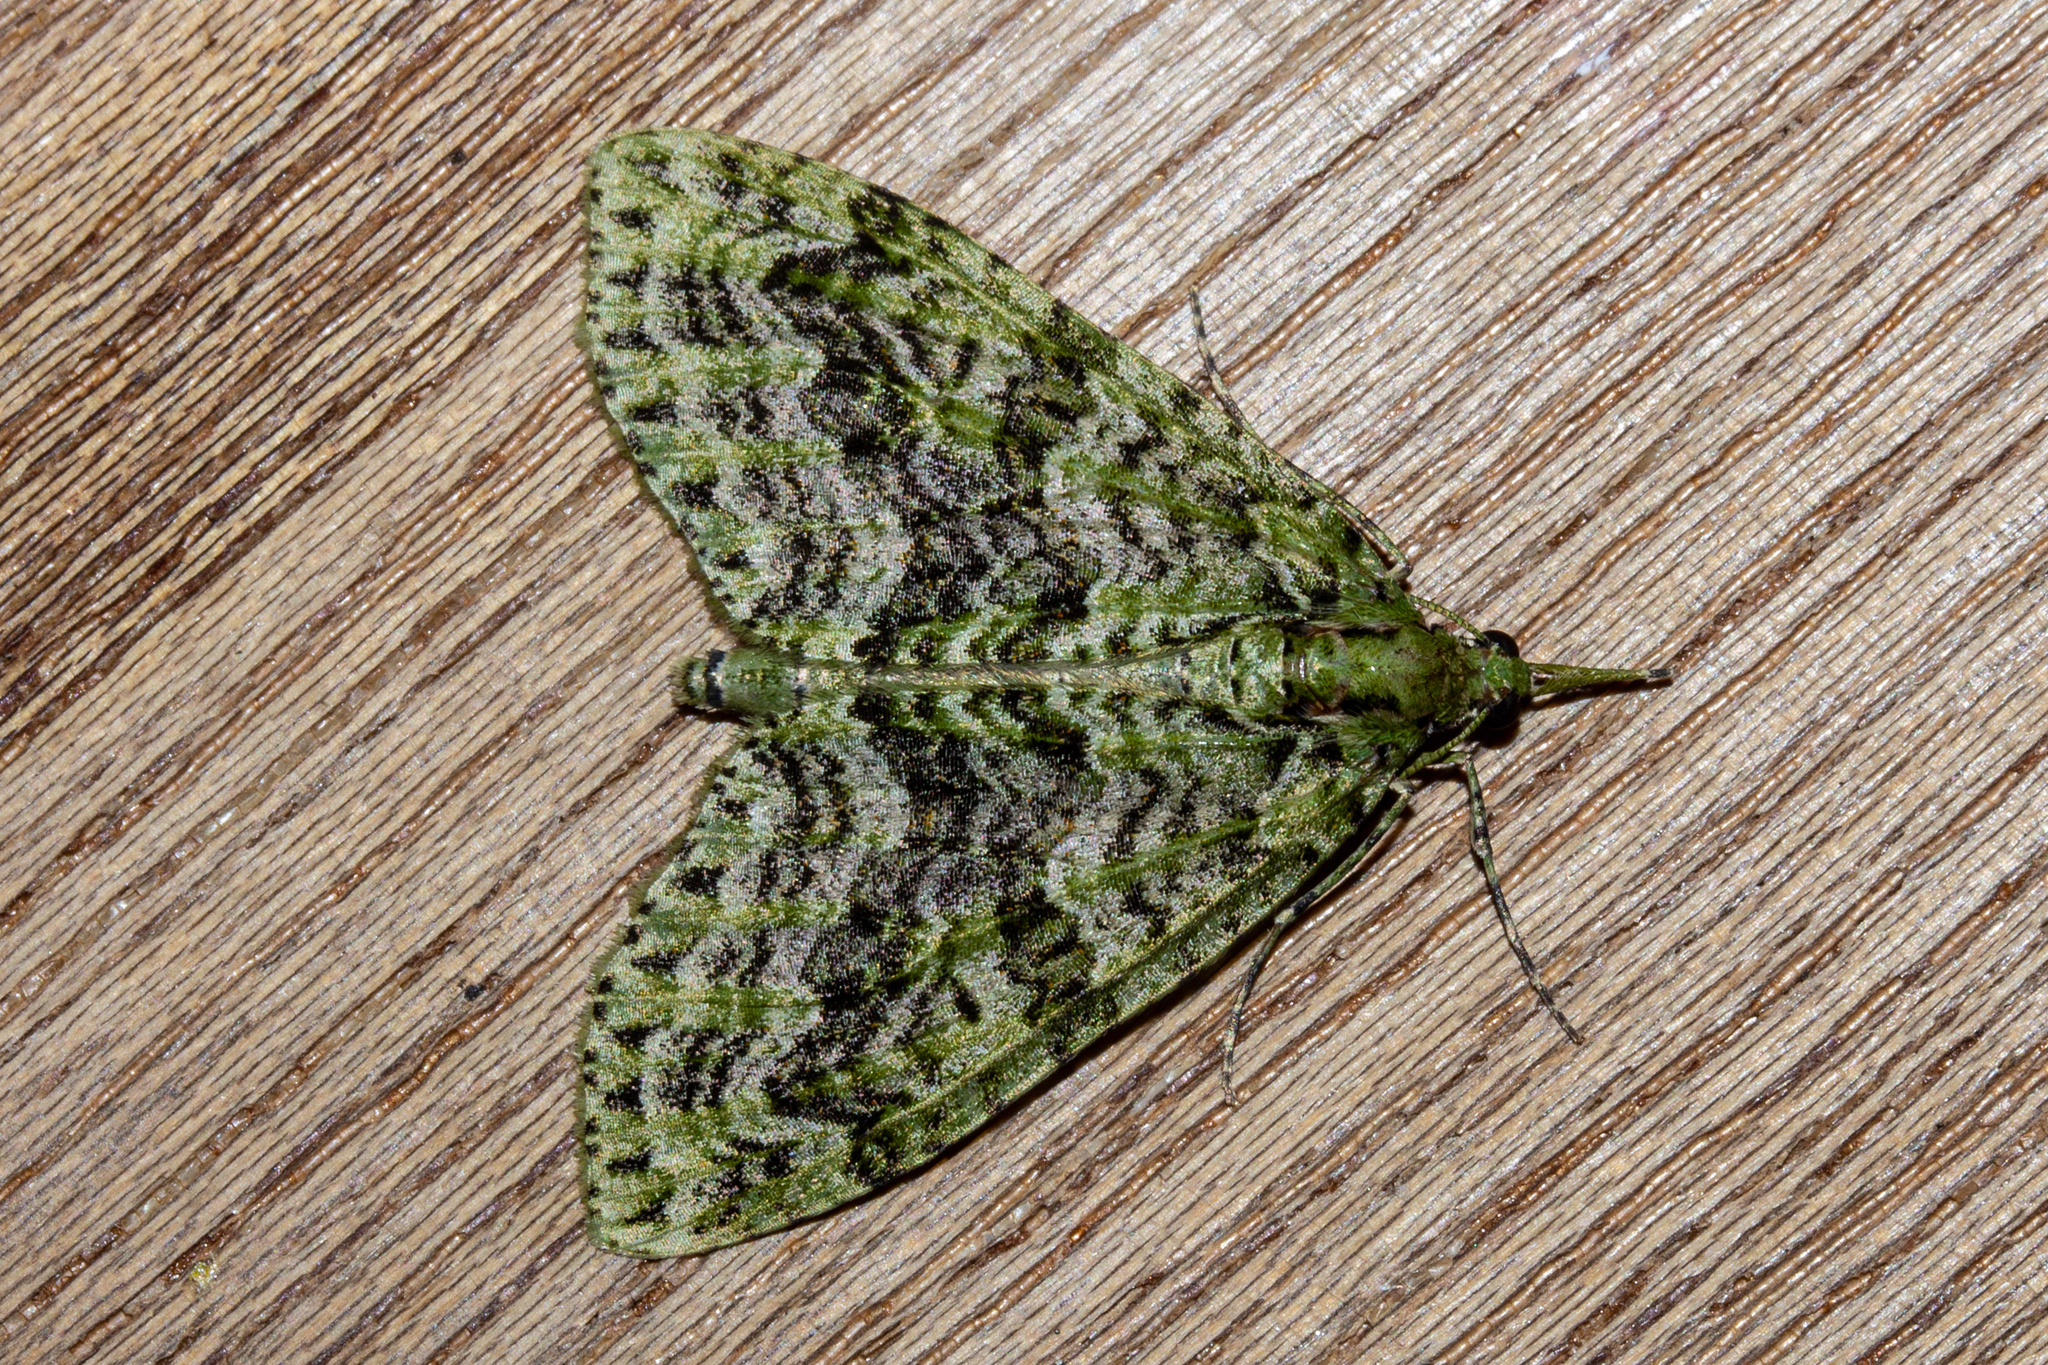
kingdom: Animalia
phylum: Arthropoda
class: Insecta
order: Lepidoptera
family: Geometridae
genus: Tatosoma
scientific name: Tatosoma tipulata
